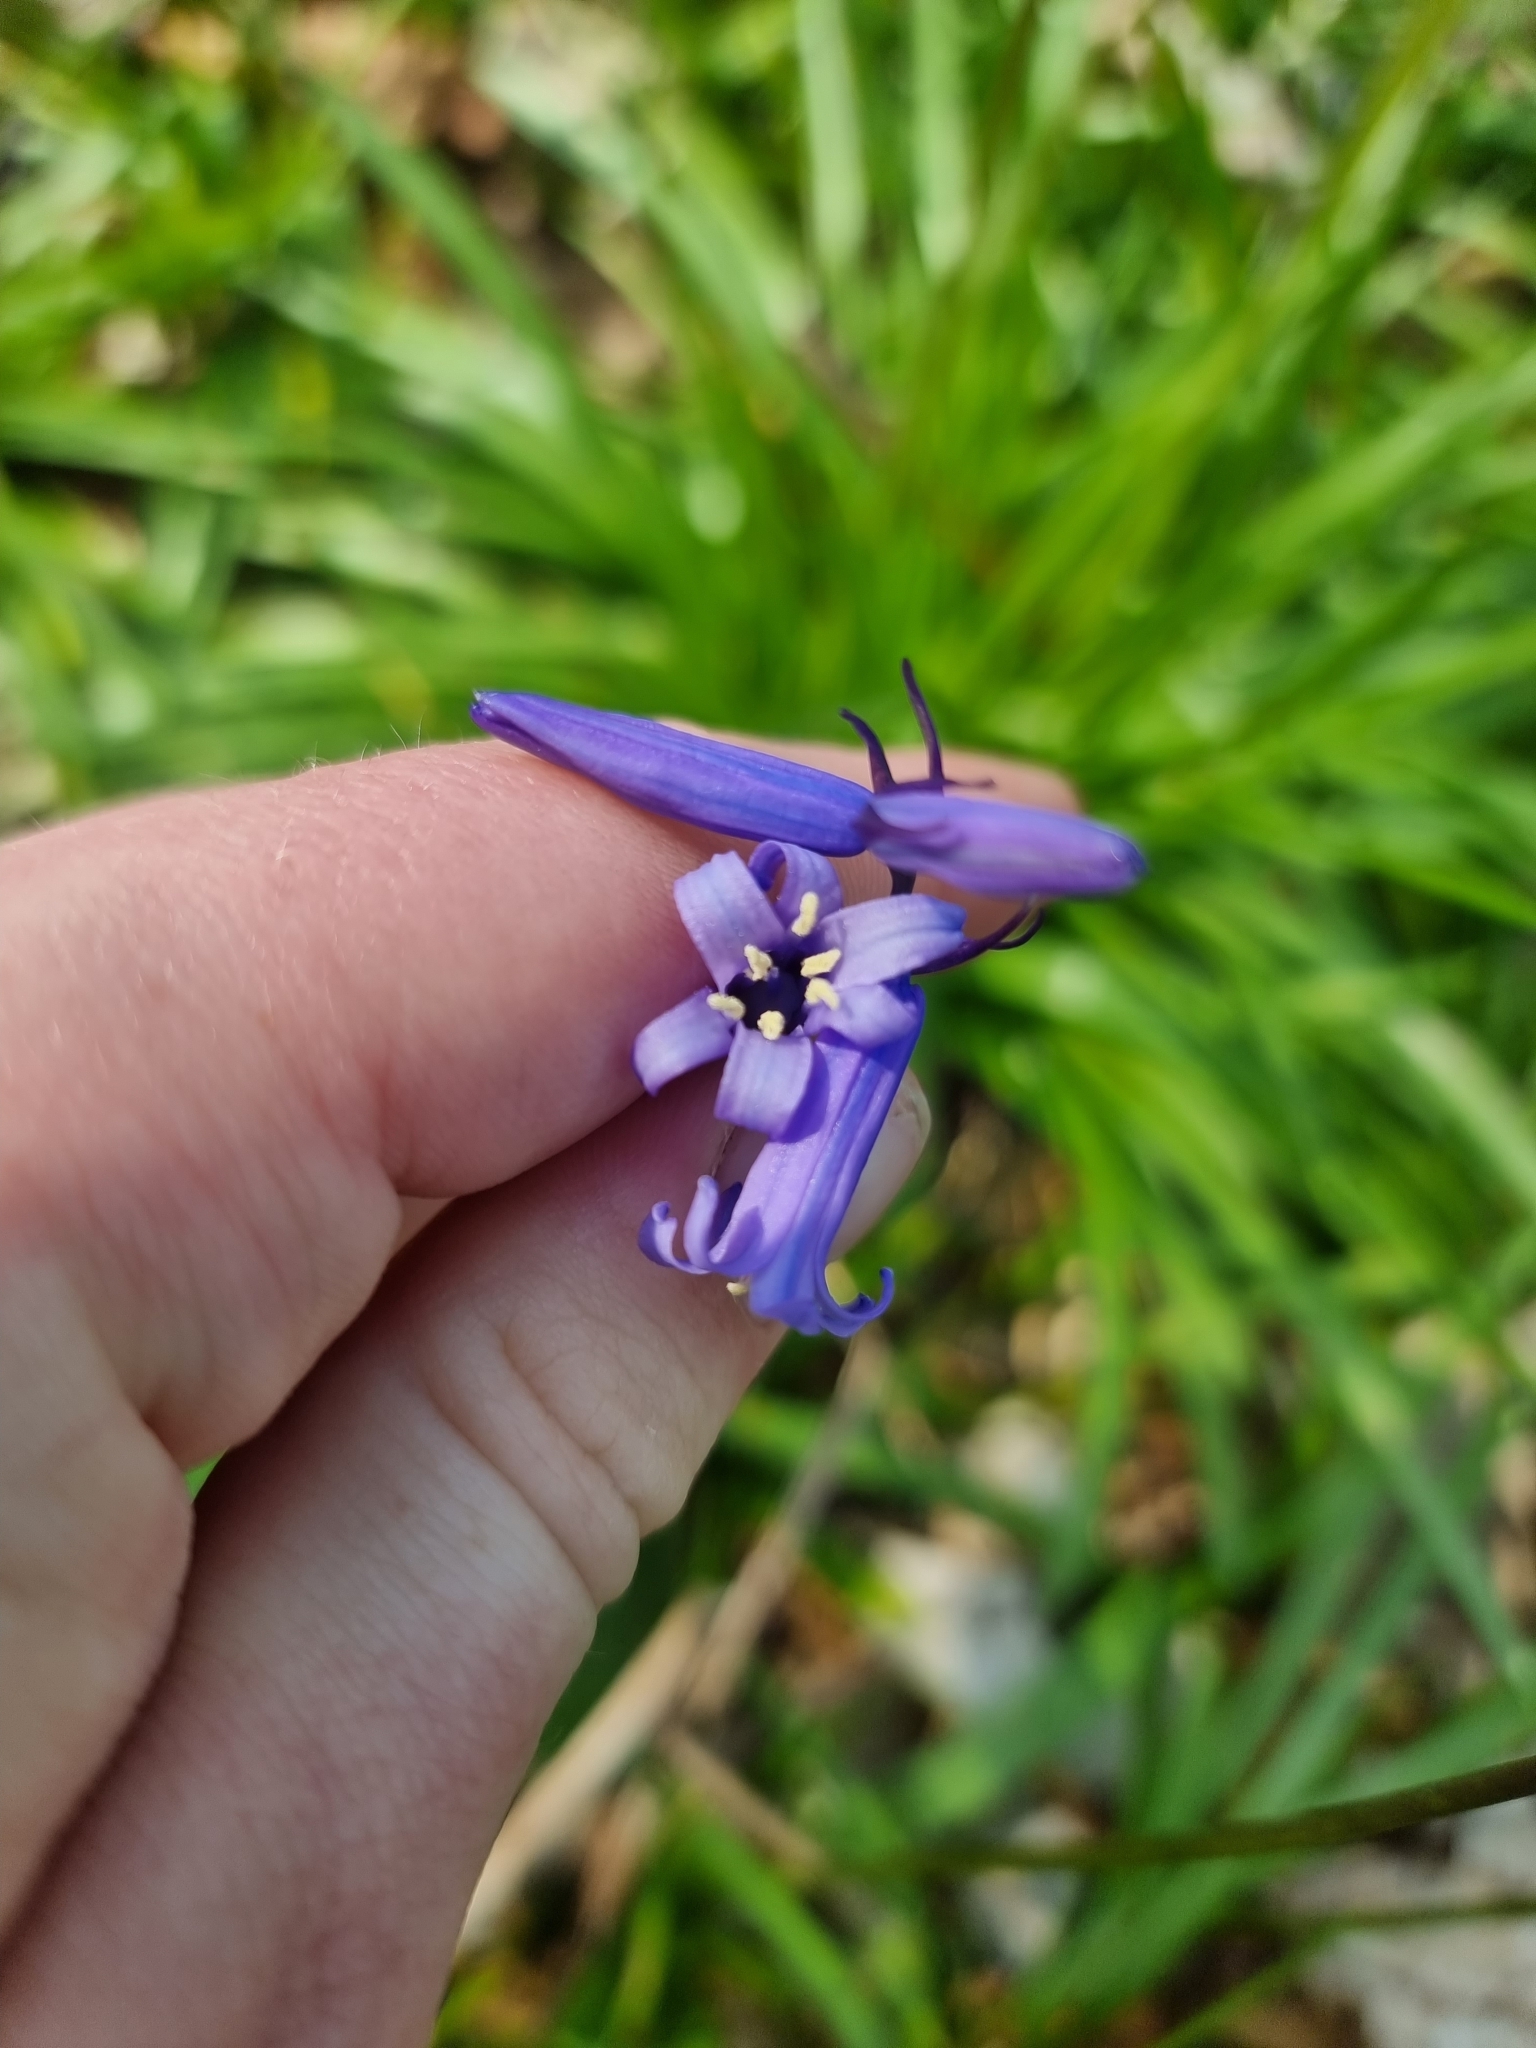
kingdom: Plantae
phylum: Tracheophyta
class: Liliopsida
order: Asparagales
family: Asparagaceae
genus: Hyacinthoides
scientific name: Hyacinthoides non-scripta
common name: Bluebell
